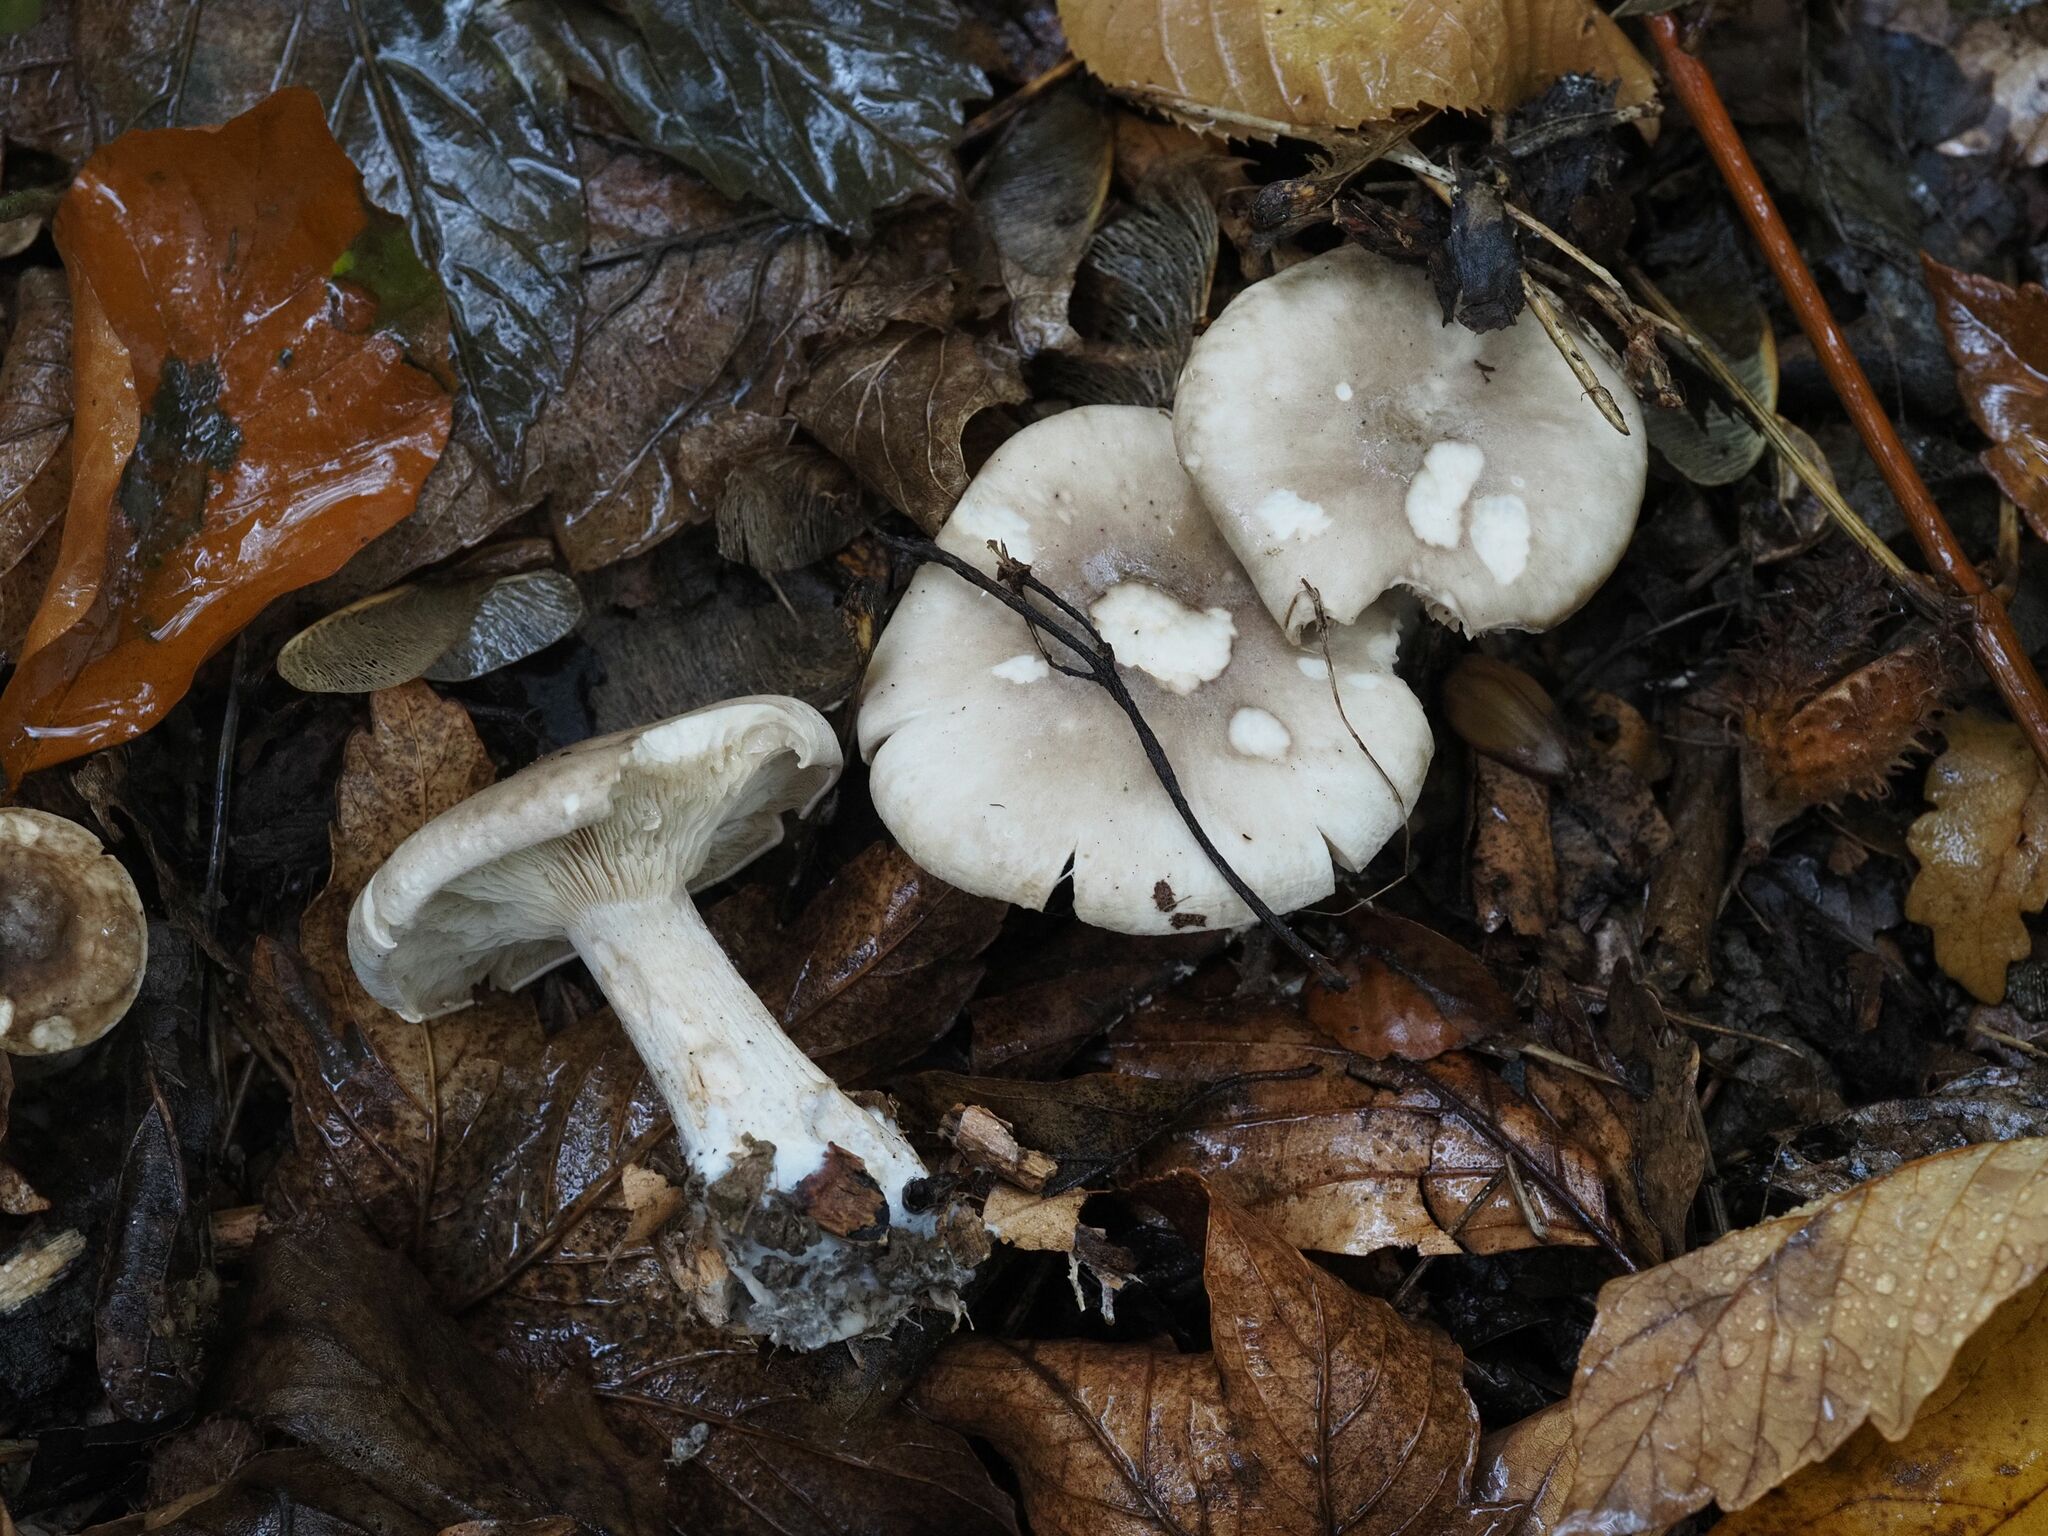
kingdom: Fungi
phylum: Basidiomycota
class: Agaricomycetes
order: Agaricales
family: Tricholomataceae
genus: Clitocybe
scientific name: Clitocybe nebularis
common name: Clouded agaric
